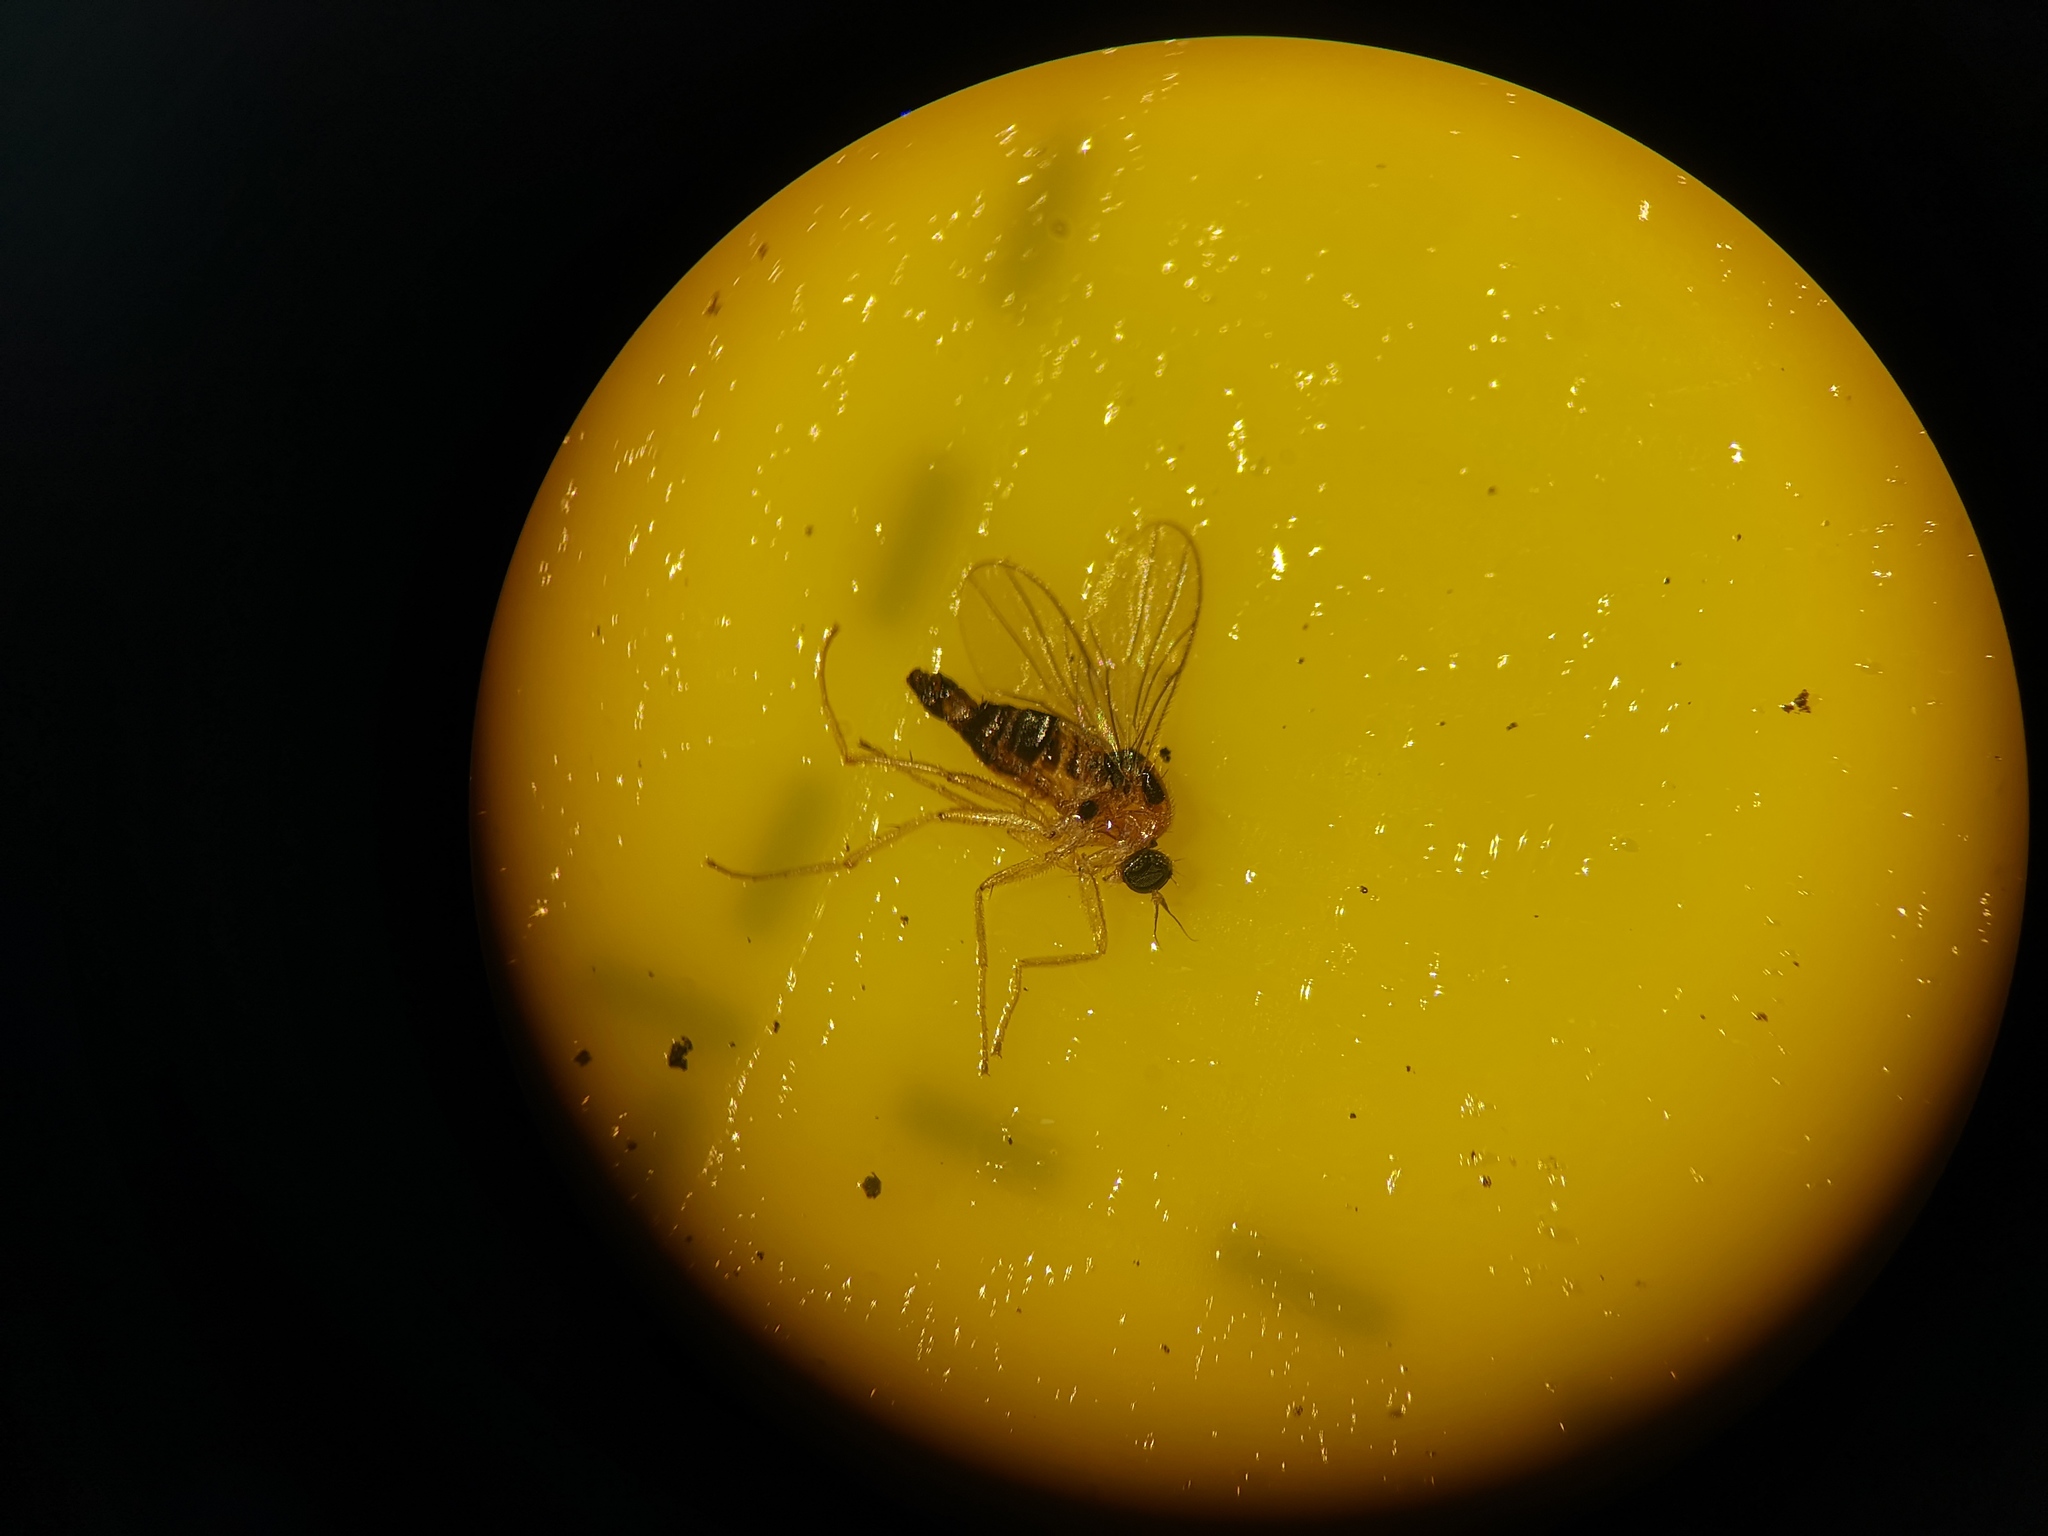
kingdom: Animalia
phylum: Arthropoda
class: Insecta
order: Diptera
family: Hybotidae
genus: Drapetis
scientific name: Drapetis ephippiata
